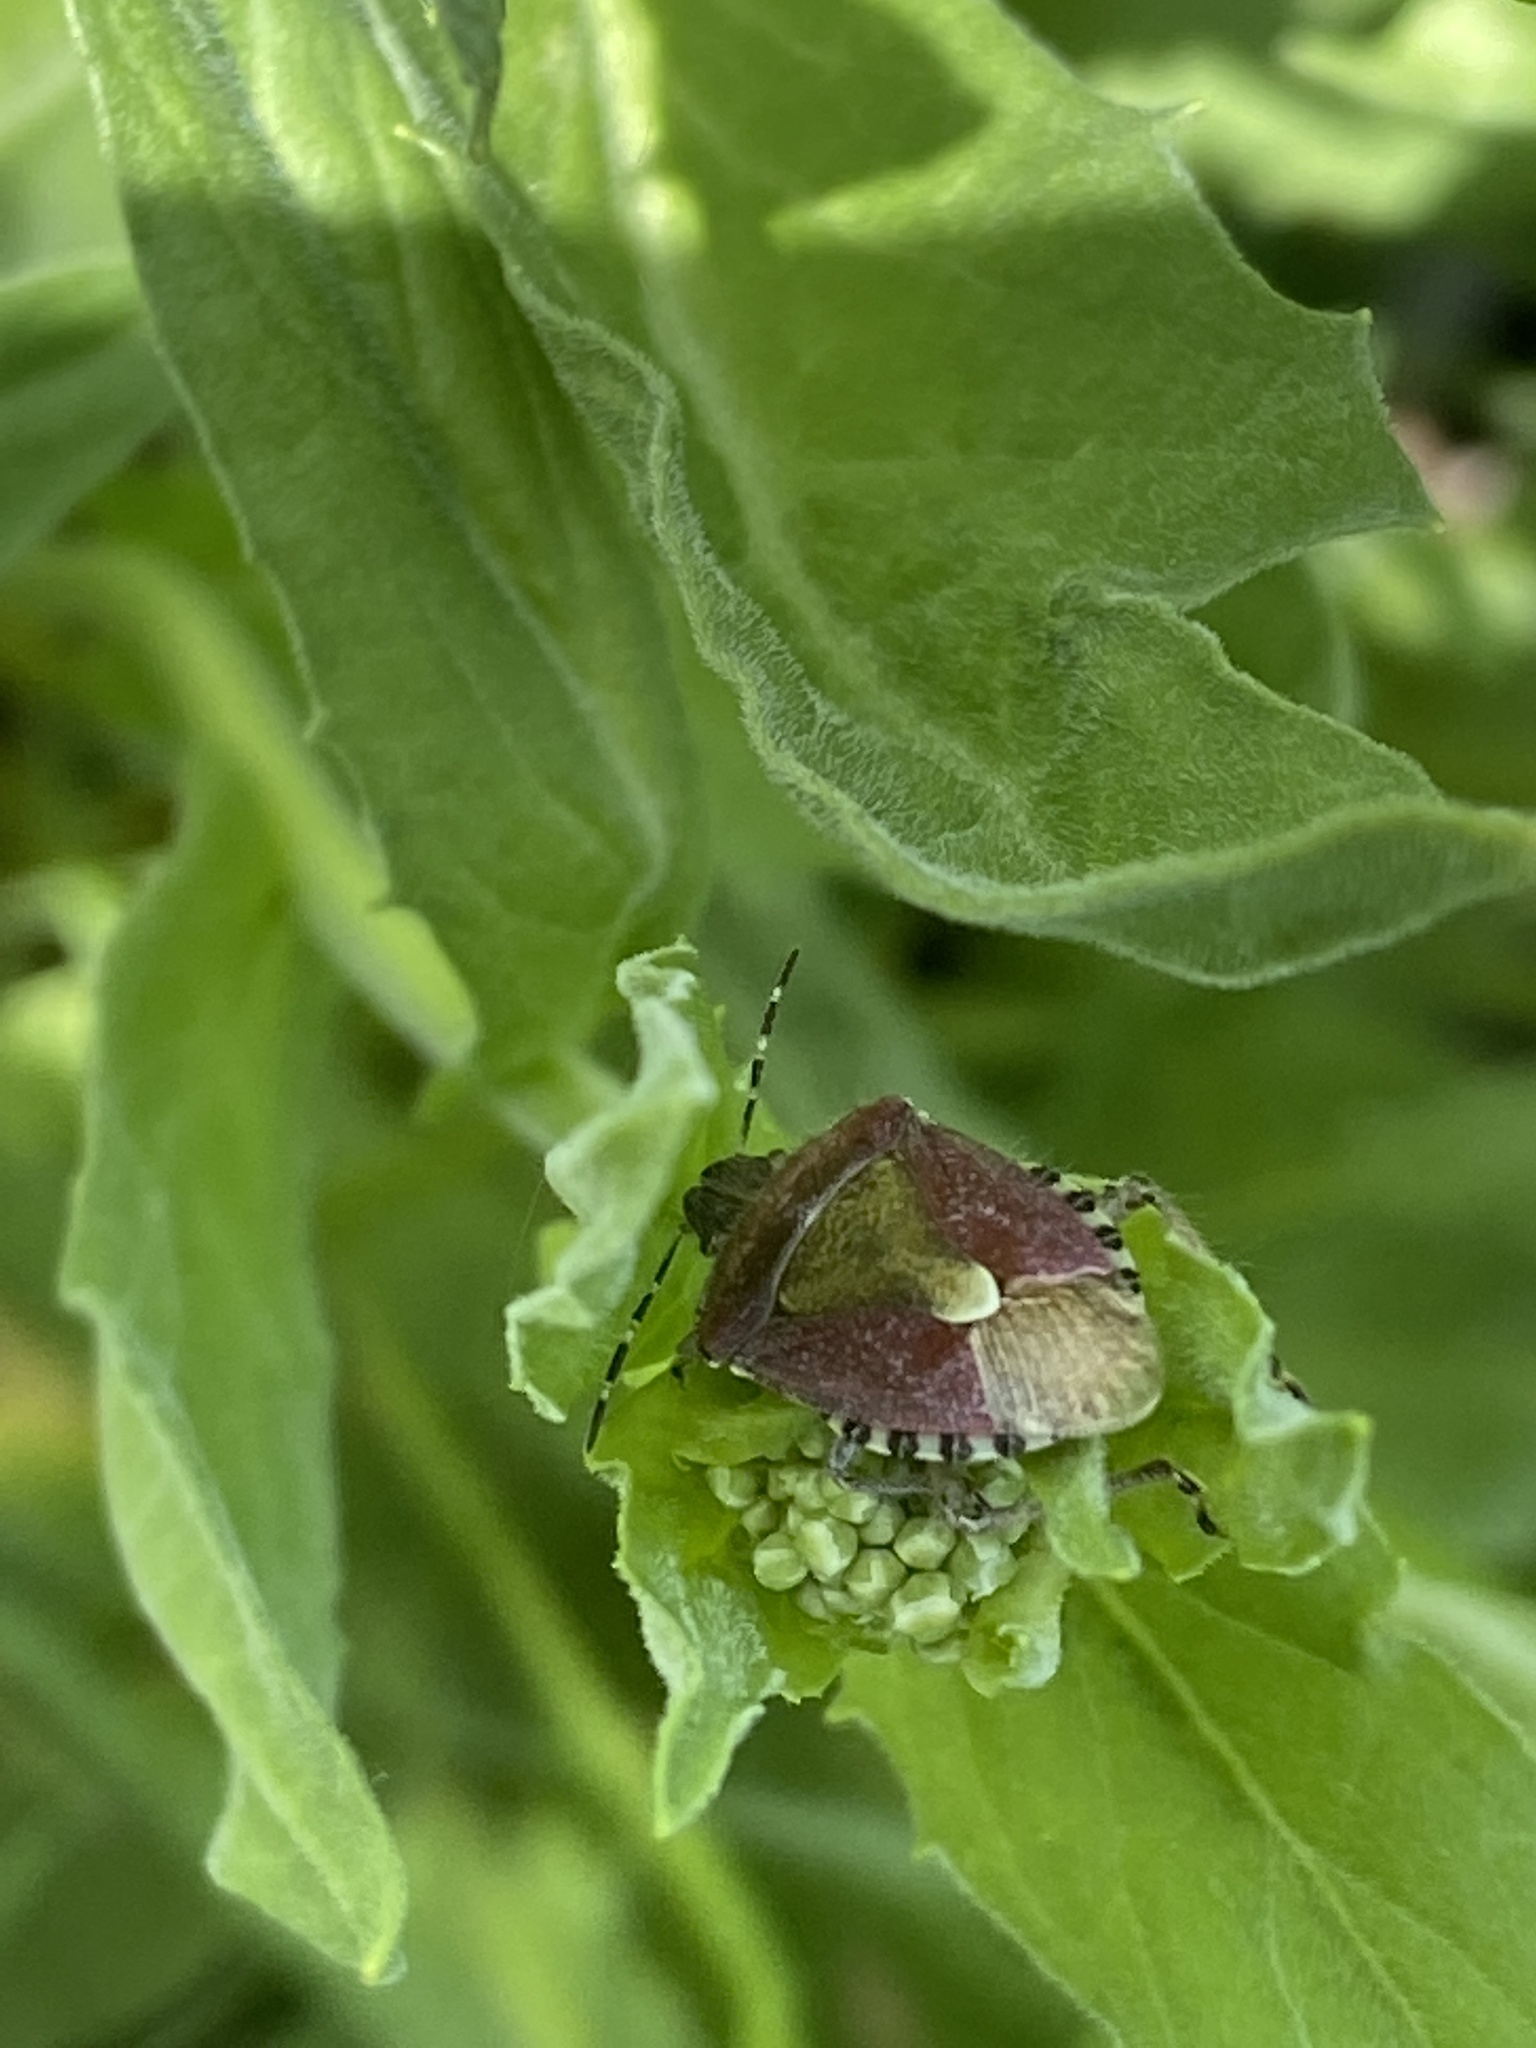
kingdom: Animalia
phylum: Arthropoda
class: Insecta
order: Hemiptera
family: Pentatomidae
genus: Dolycoris
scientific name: Dolycoris baccarum
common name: Sloe bug
